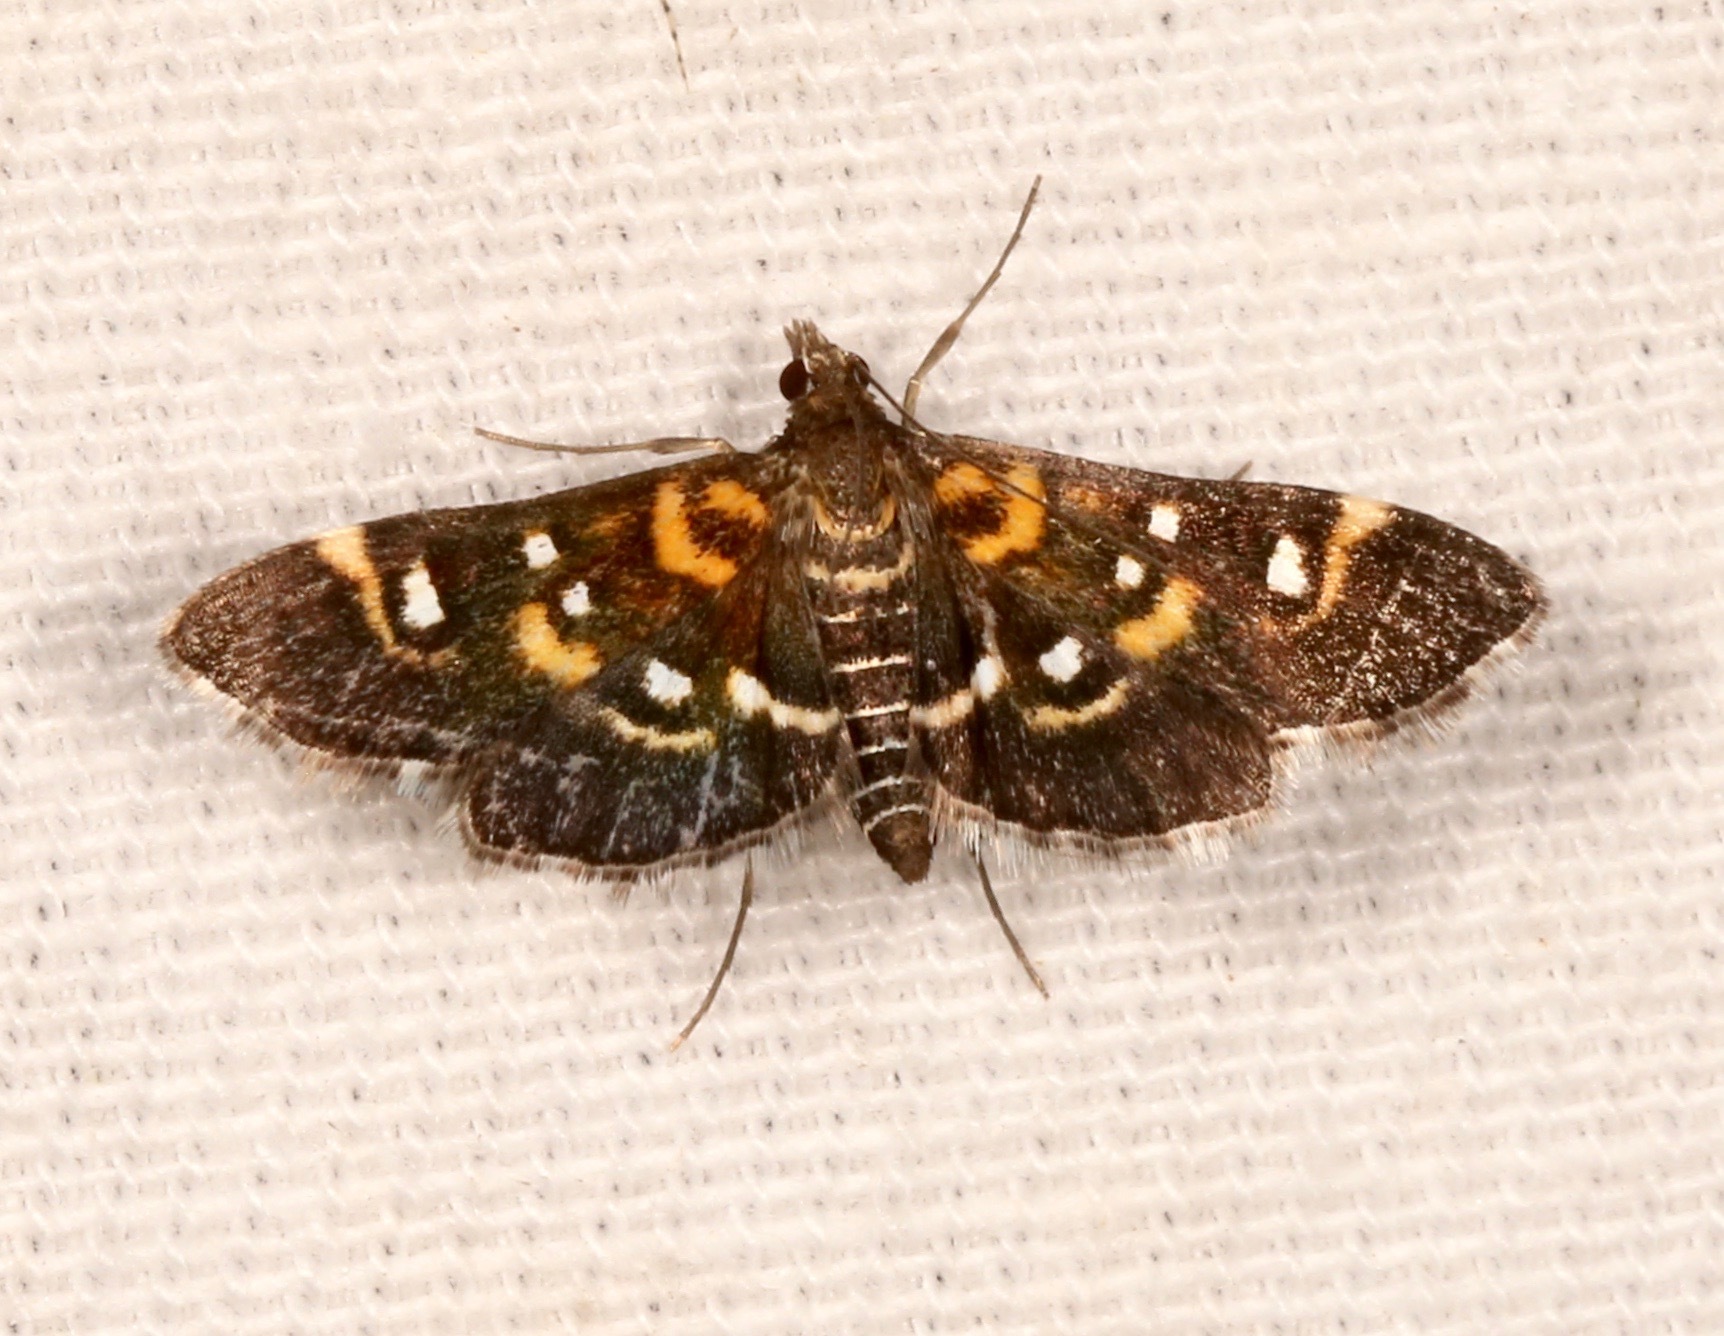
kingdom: Animalia
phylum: Arthropoda
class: Insecta
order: Lepidoptera
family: Crambidae
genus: Diathrausta
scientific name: Diathrausta harlequinalis
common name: Harlequin webworm moth
